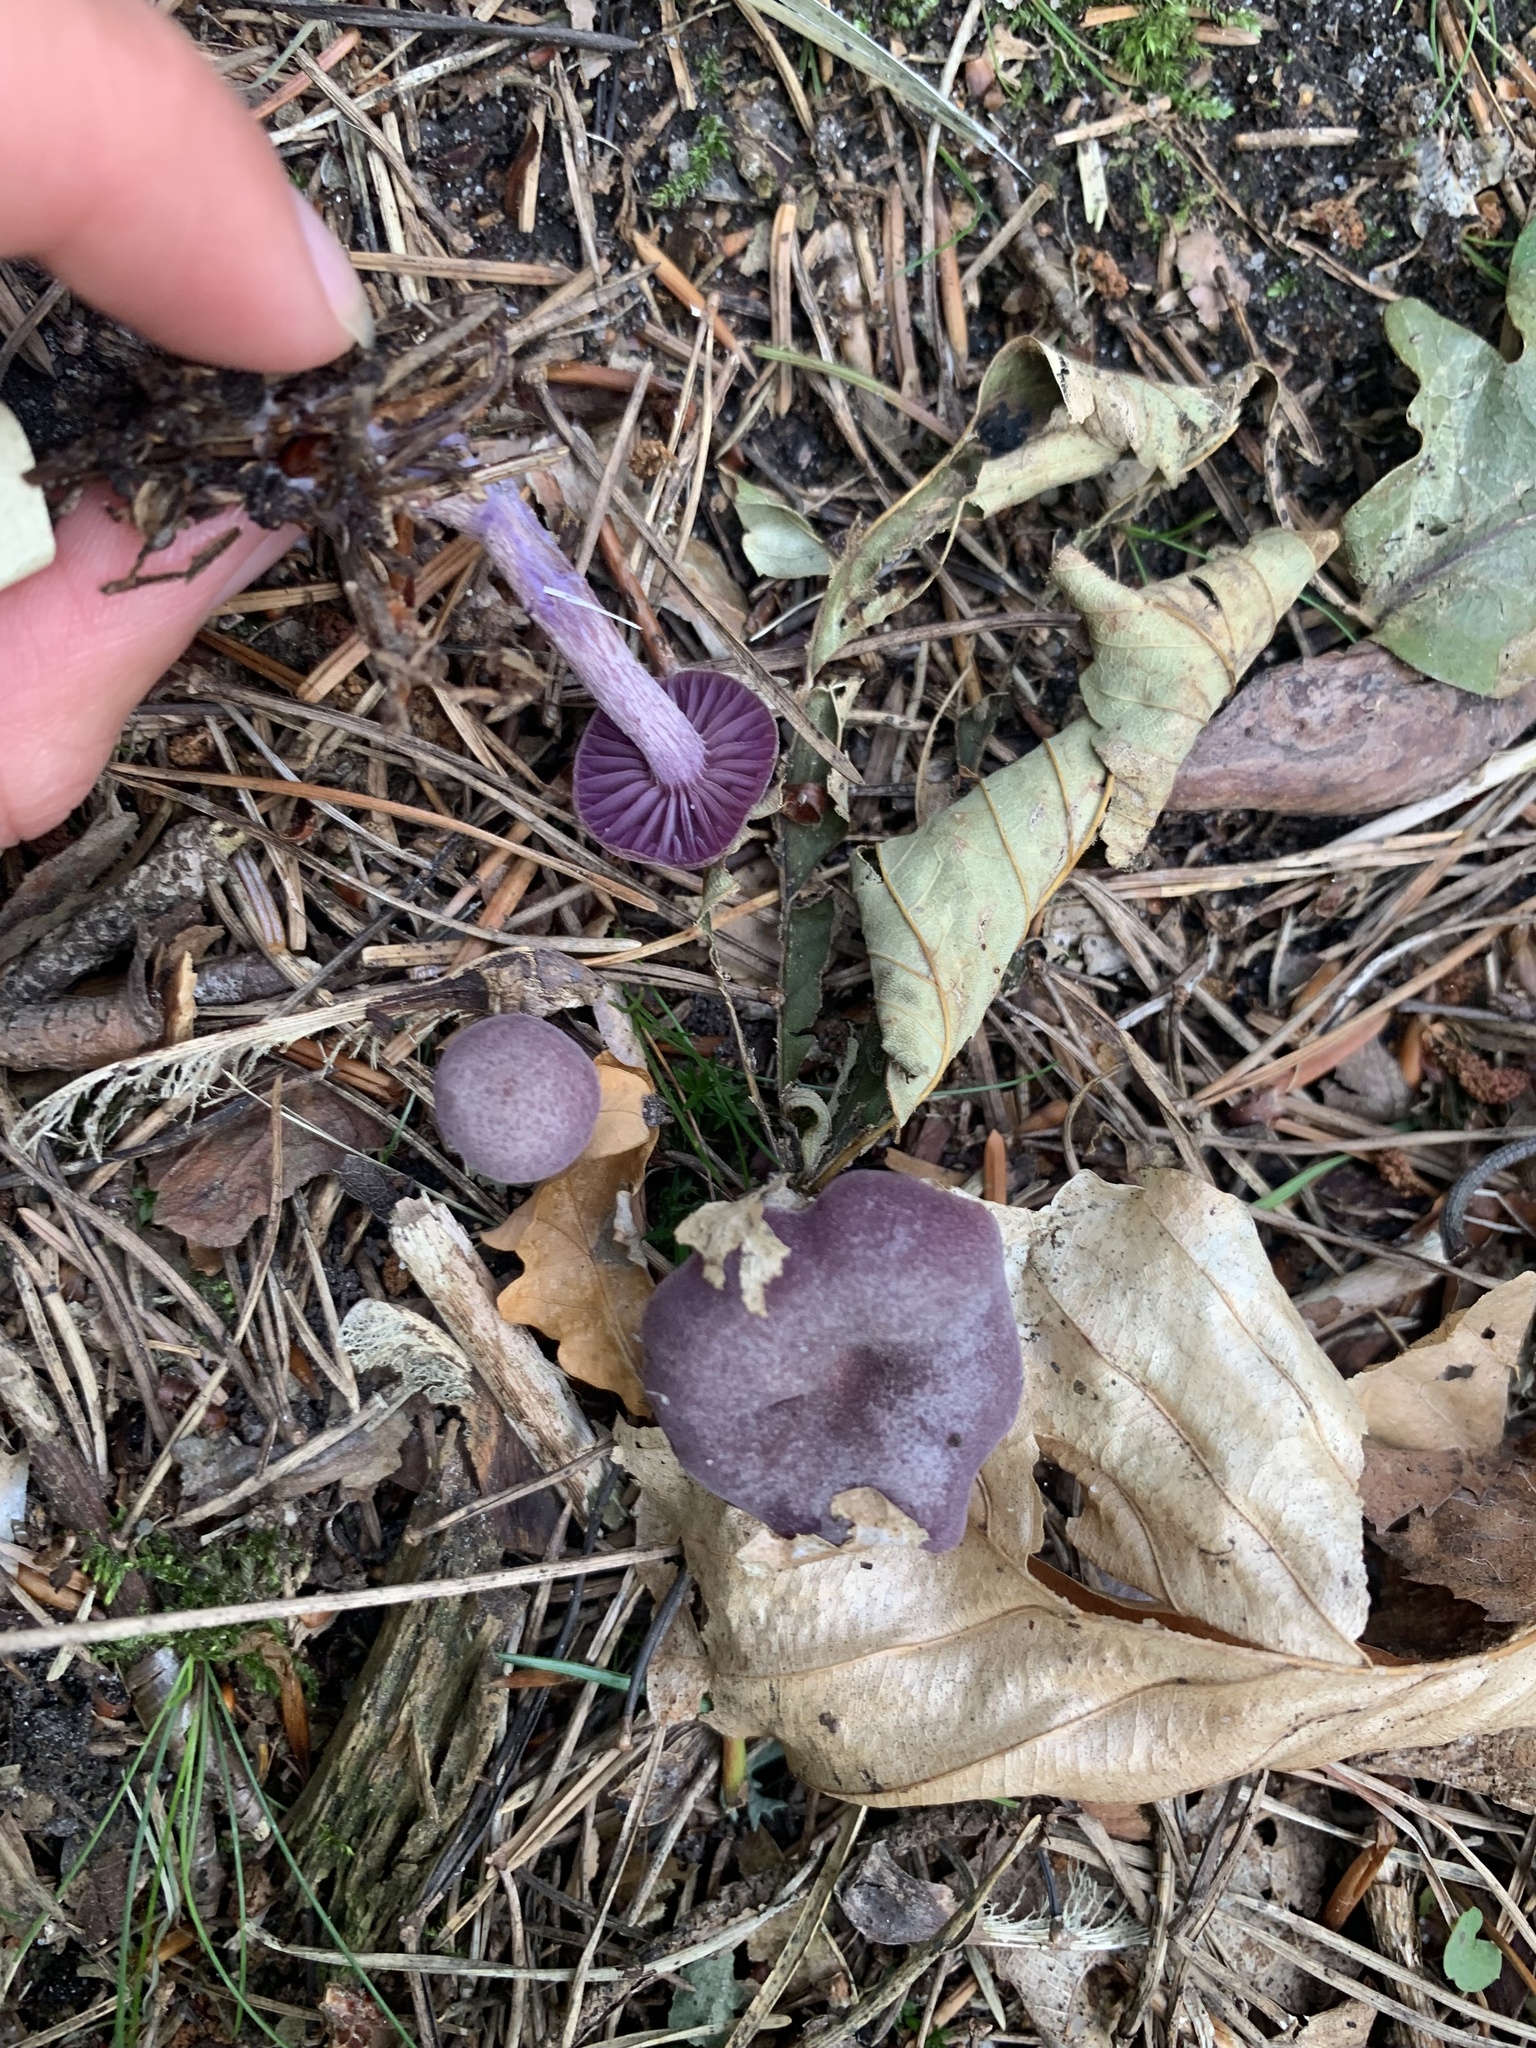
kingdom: Fungi
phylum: Basidiomycota
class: Agaricomycetes
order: Agaricales
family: Hydnangiaceae
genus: Laccaria
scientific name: Laccaria amethystina
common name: Amethyst deceiver
